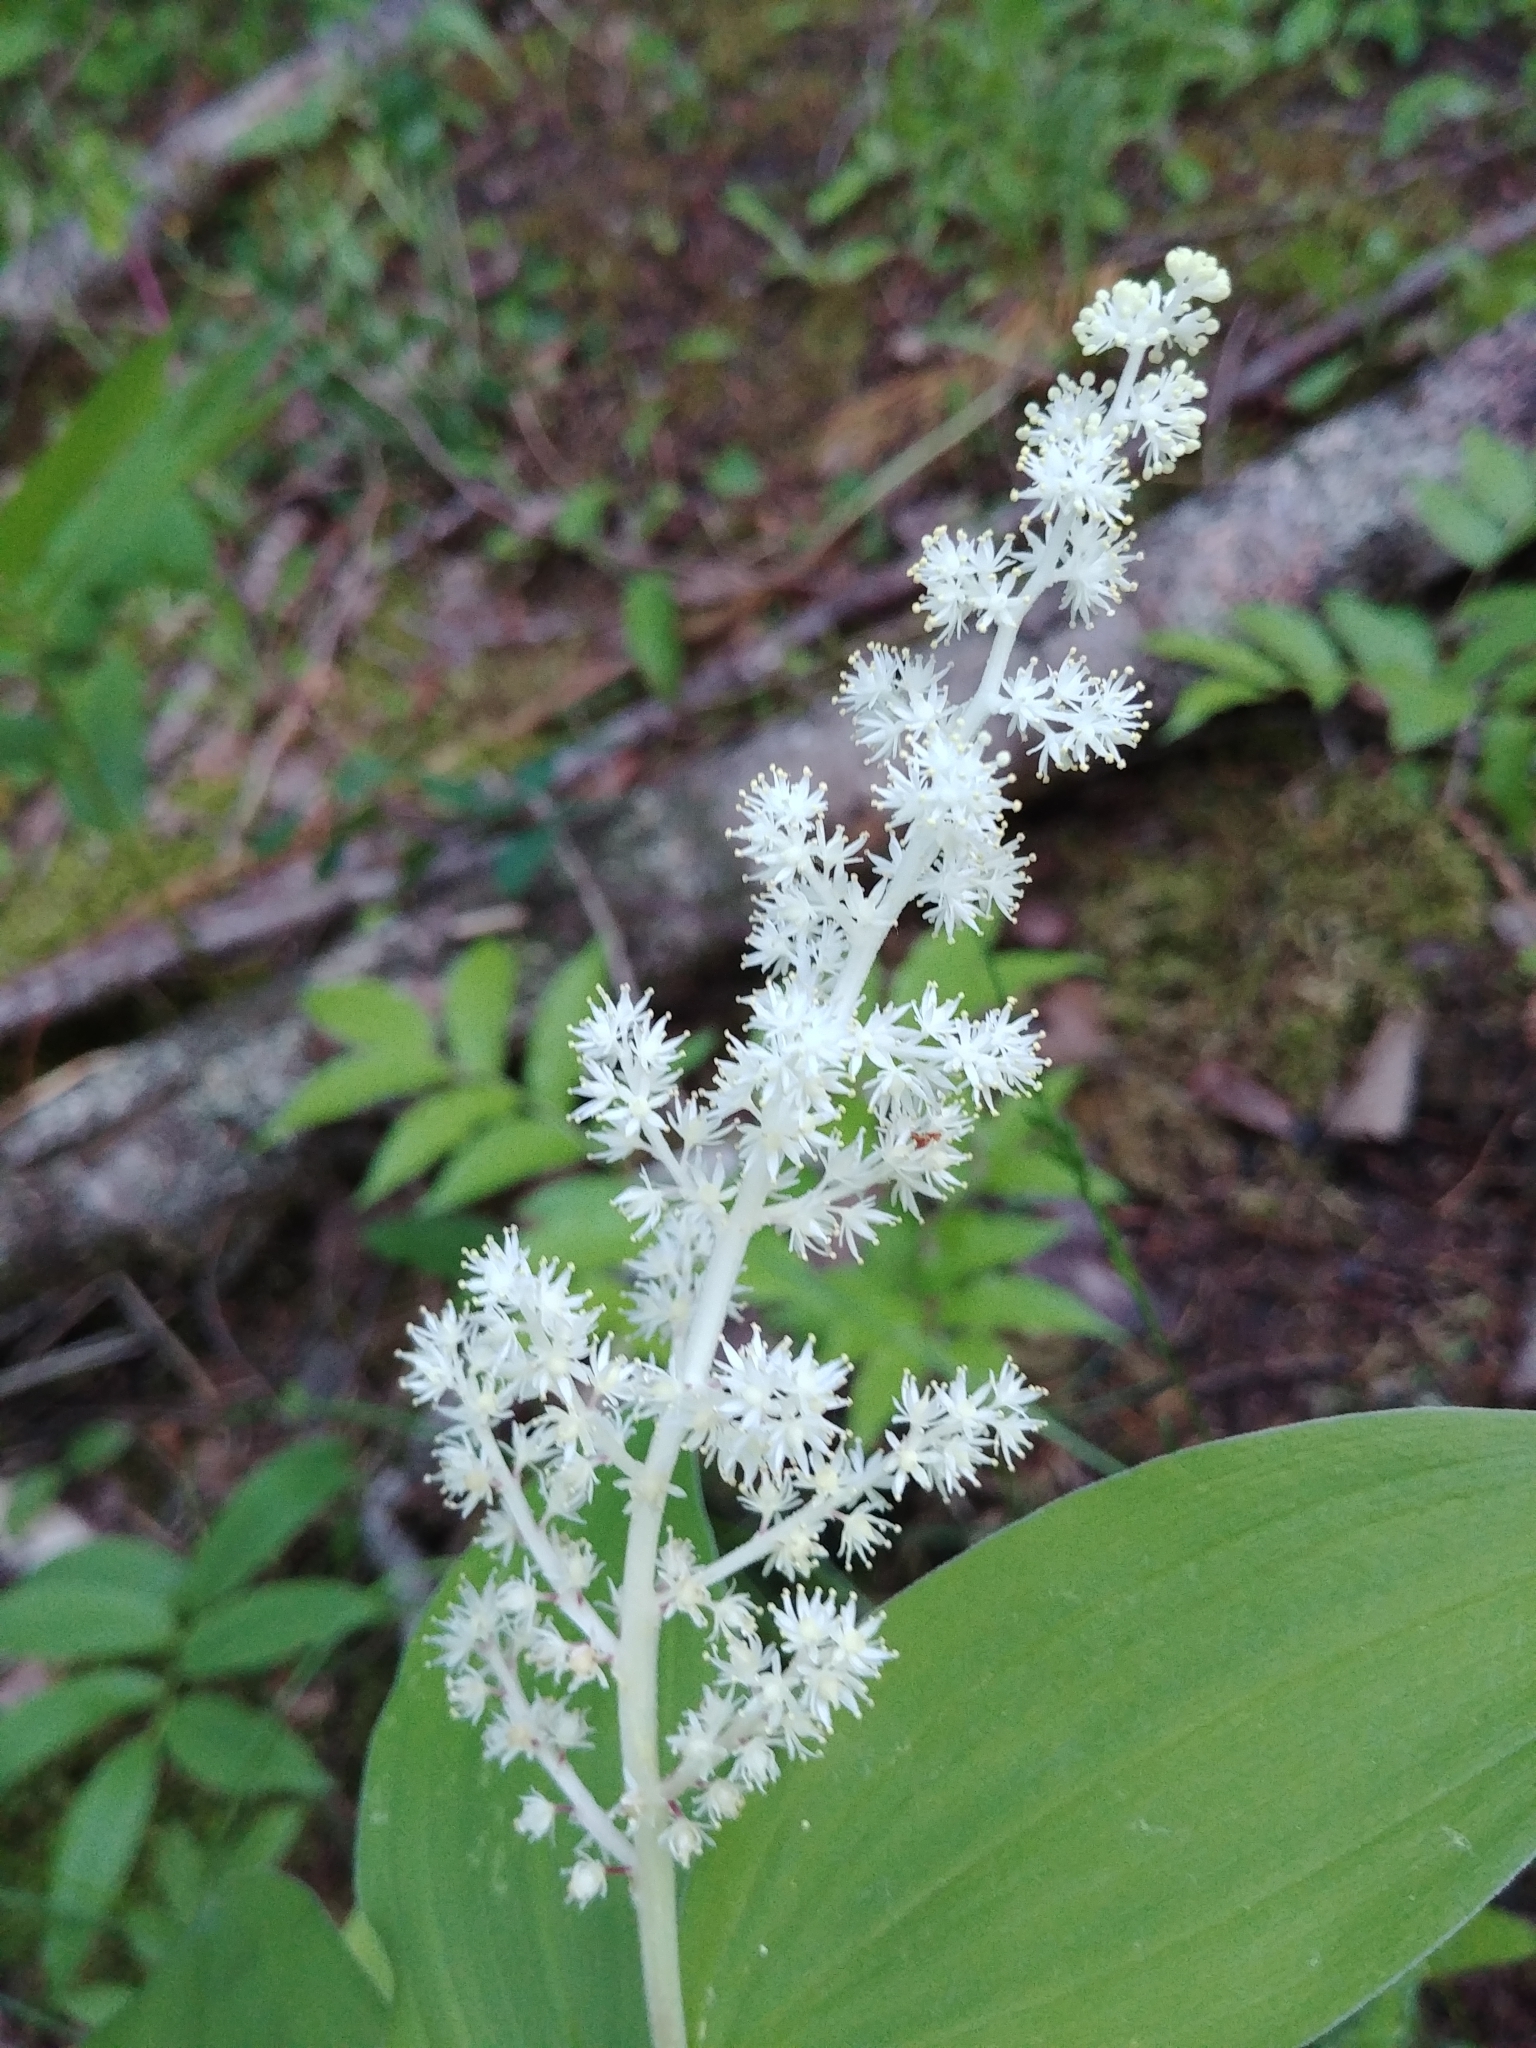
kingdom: Plantae
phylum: Tracheophyta
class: Liliopsida
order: Asparagales
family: Asparagaceae
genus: Maianthemum
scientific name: Maianthemum racemosum
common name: False spikenard
